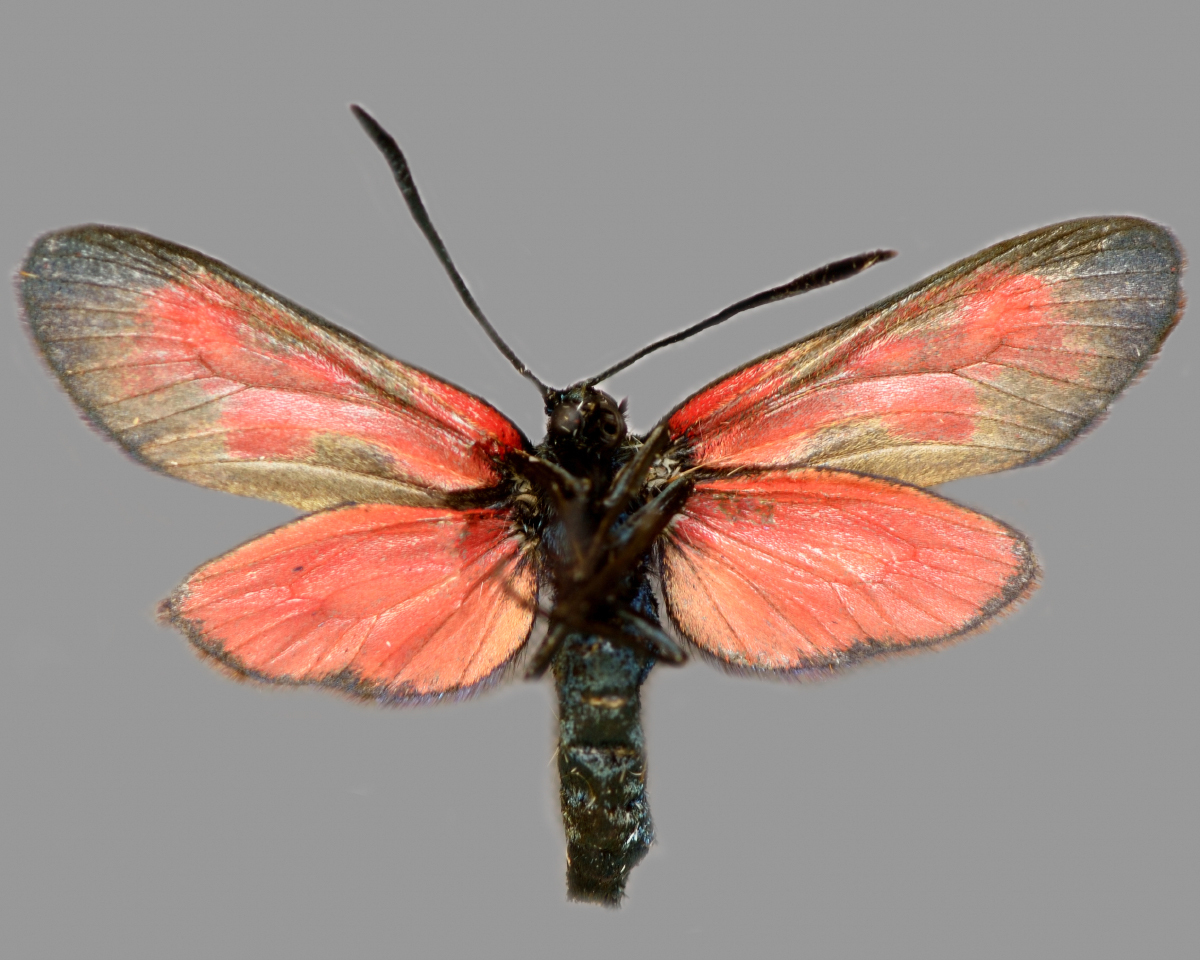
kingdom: Animalia
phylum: Arthropoda
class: Insecta
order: Lepidoptera
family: Zygaenidae
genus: Zygaena
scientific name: Zygaena viciae
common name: New forest burnet
